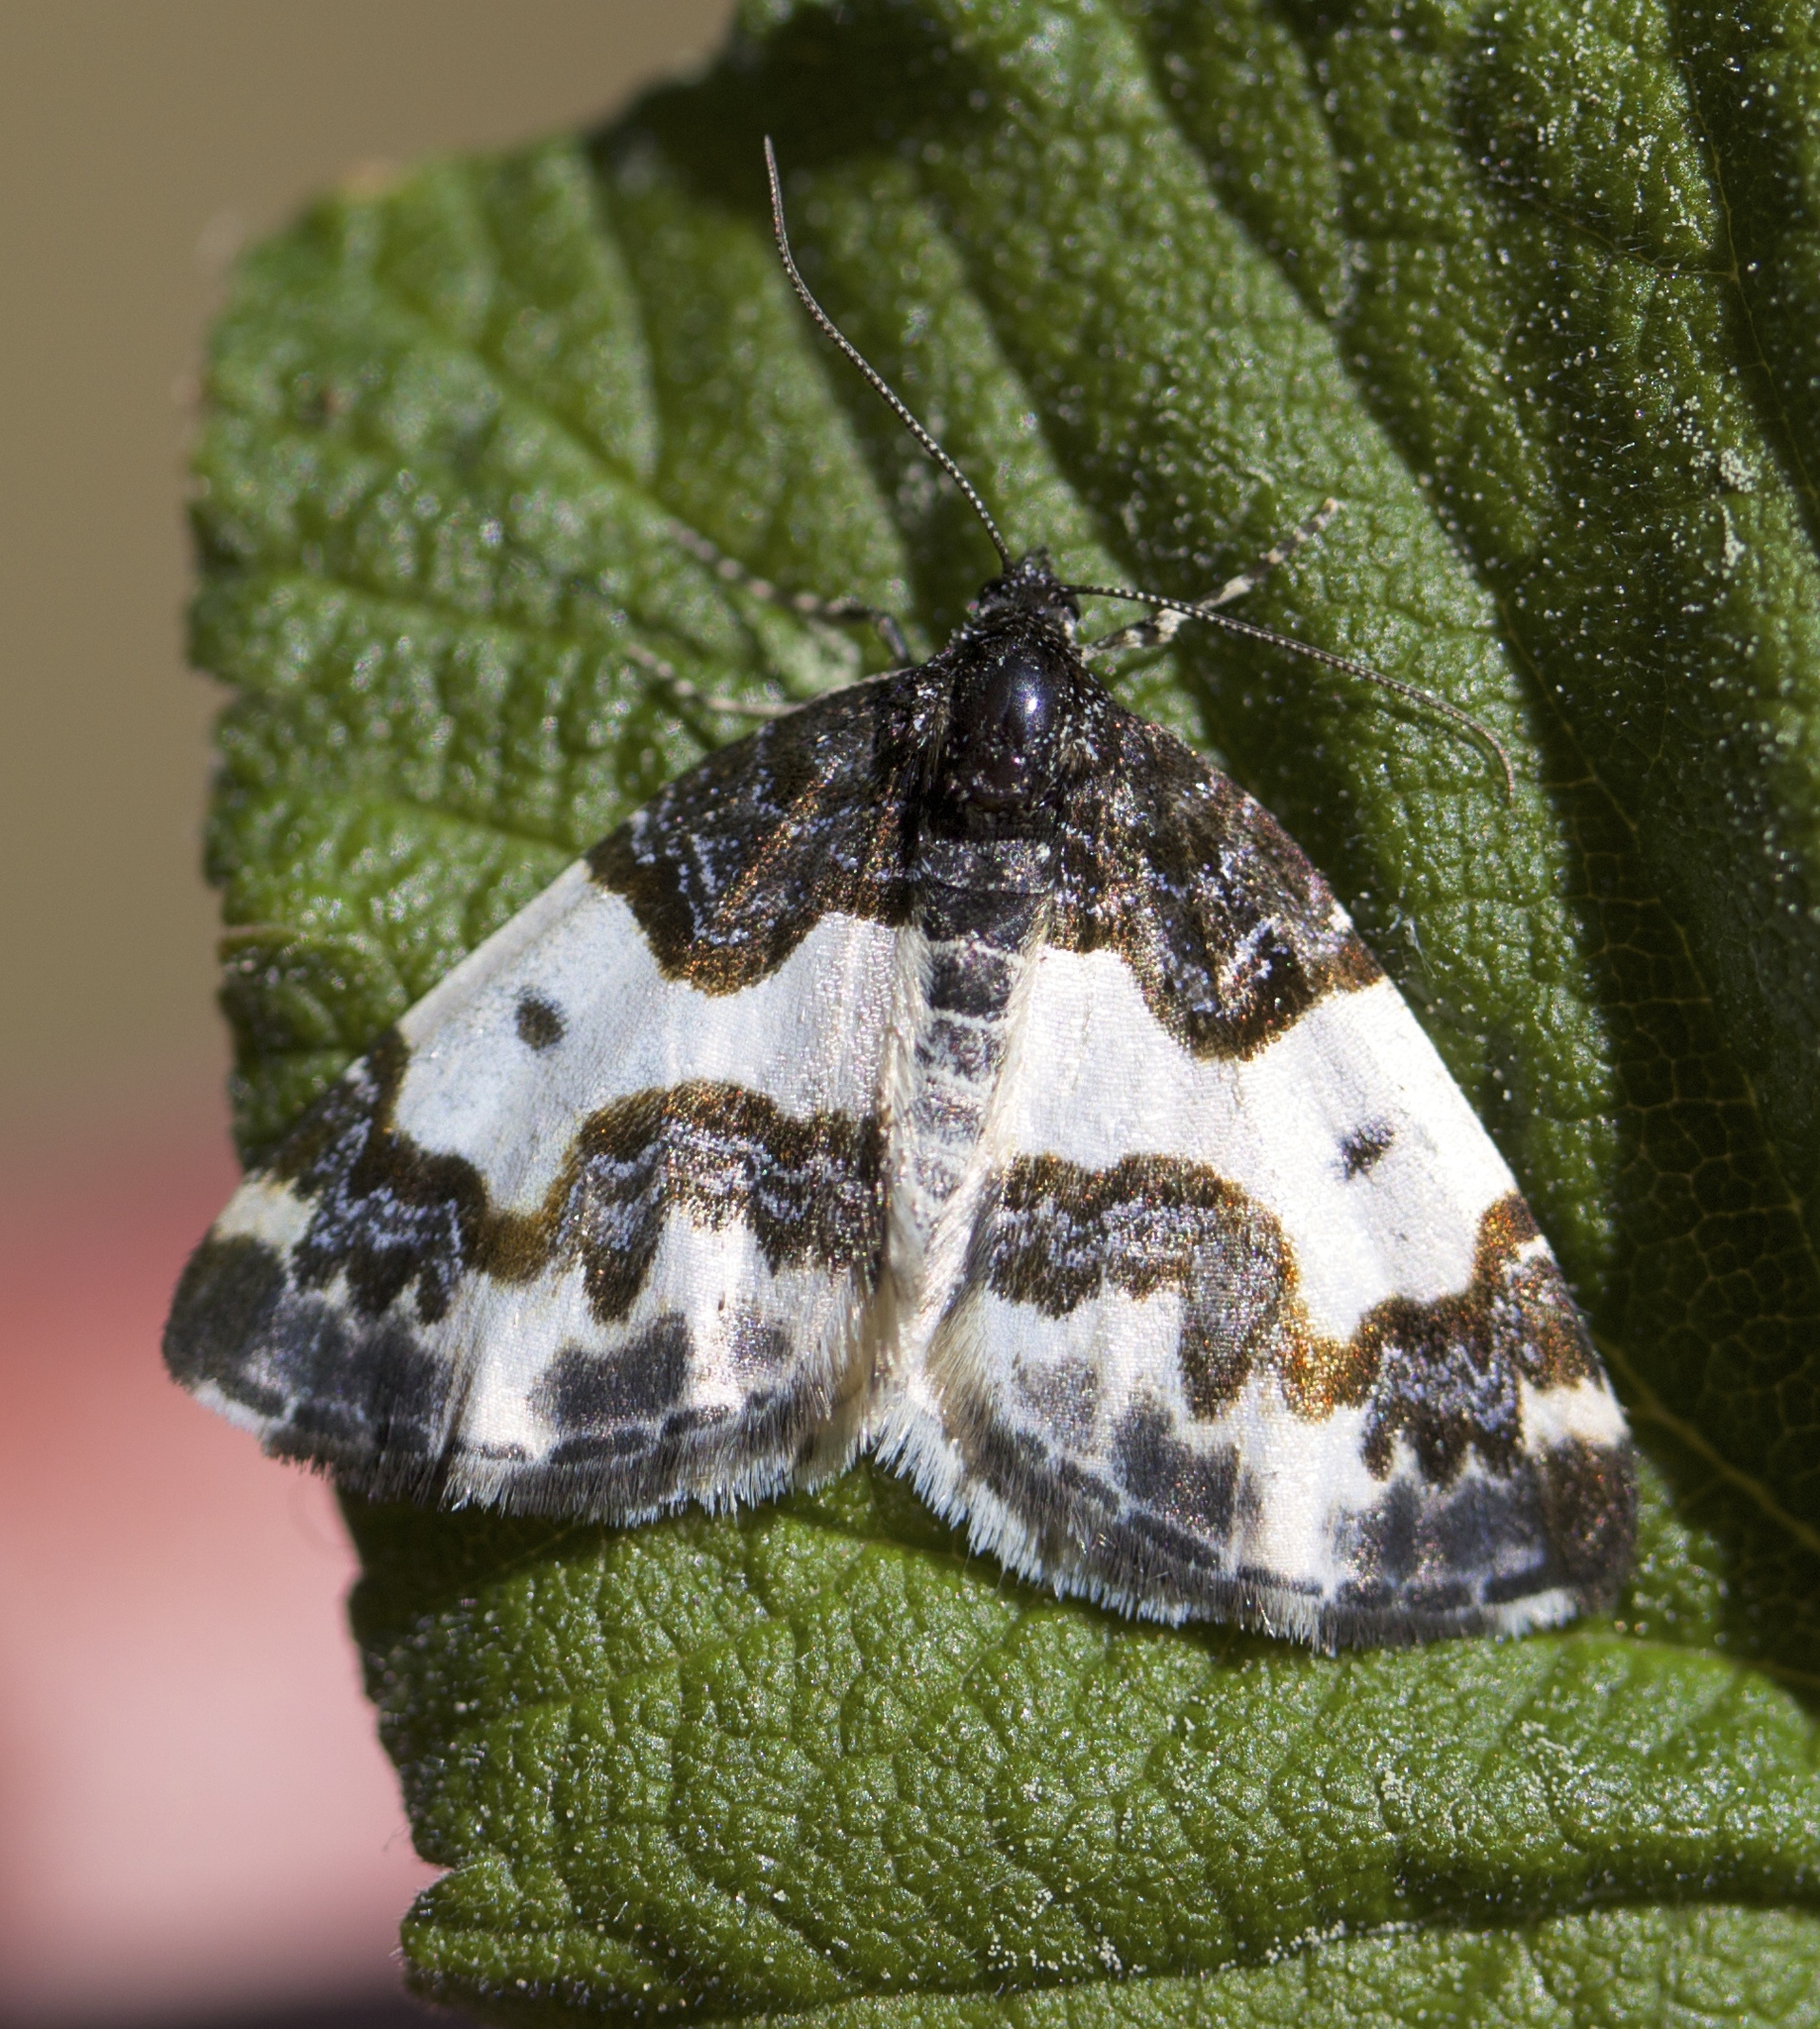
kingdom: Animalia
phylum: Arthropoda
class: Insecta
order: Lepidoptera
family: Geometridae
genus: Mesoleuca
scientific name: Mesoleuca gratulata
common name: Half-white carpet moth
